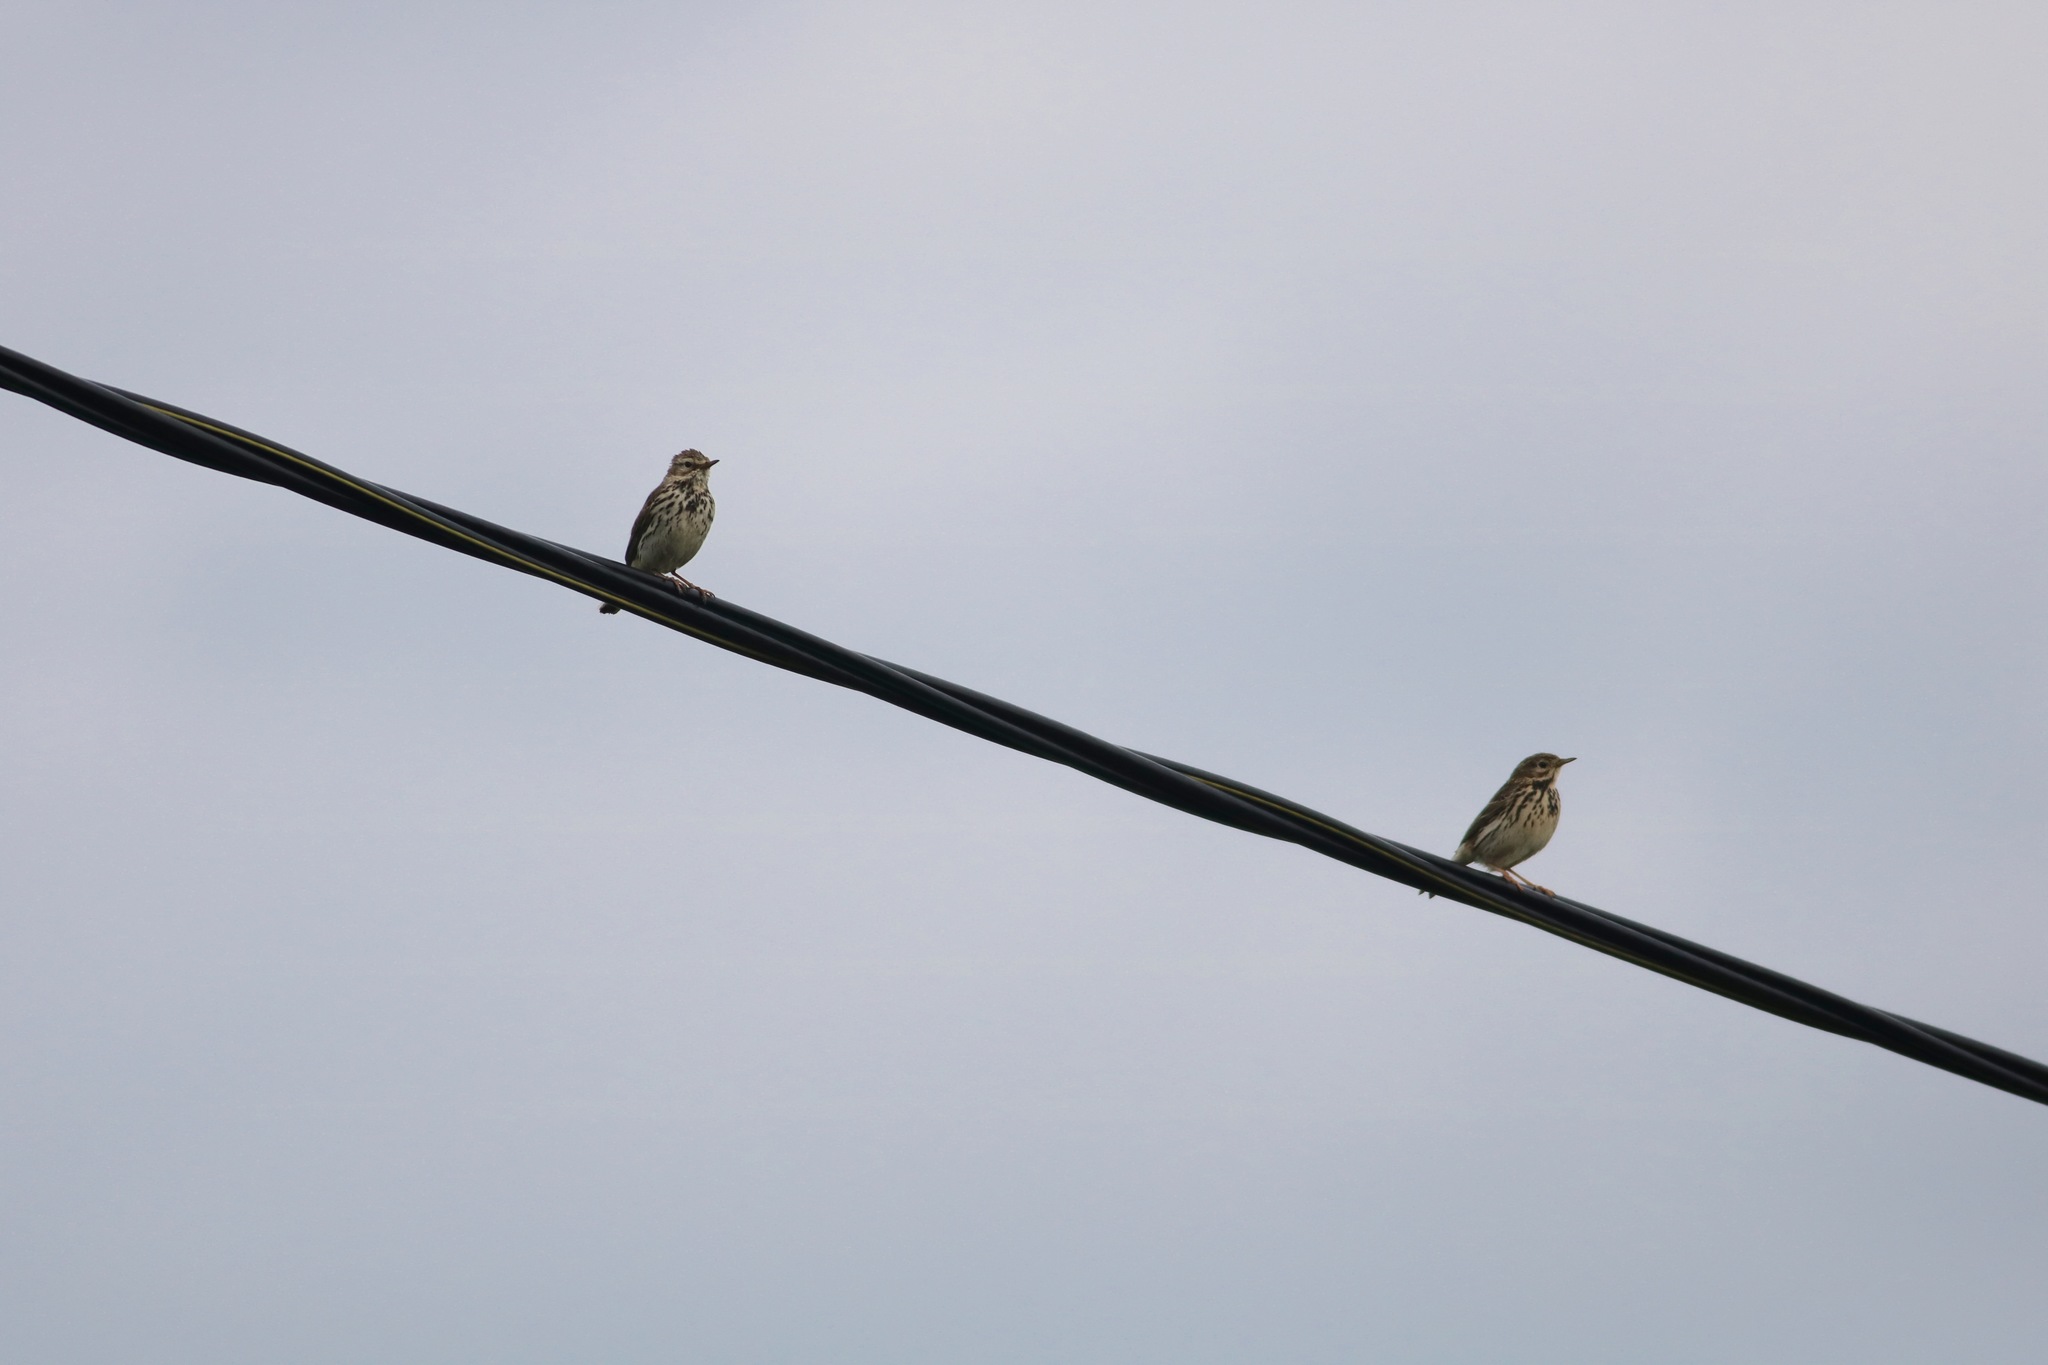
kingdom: Animalia
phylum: Chordata
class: Aves
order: Passeriformes
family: Motacillidae
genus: Anthus
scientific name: Anthus trivialis
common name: Tree pipit
